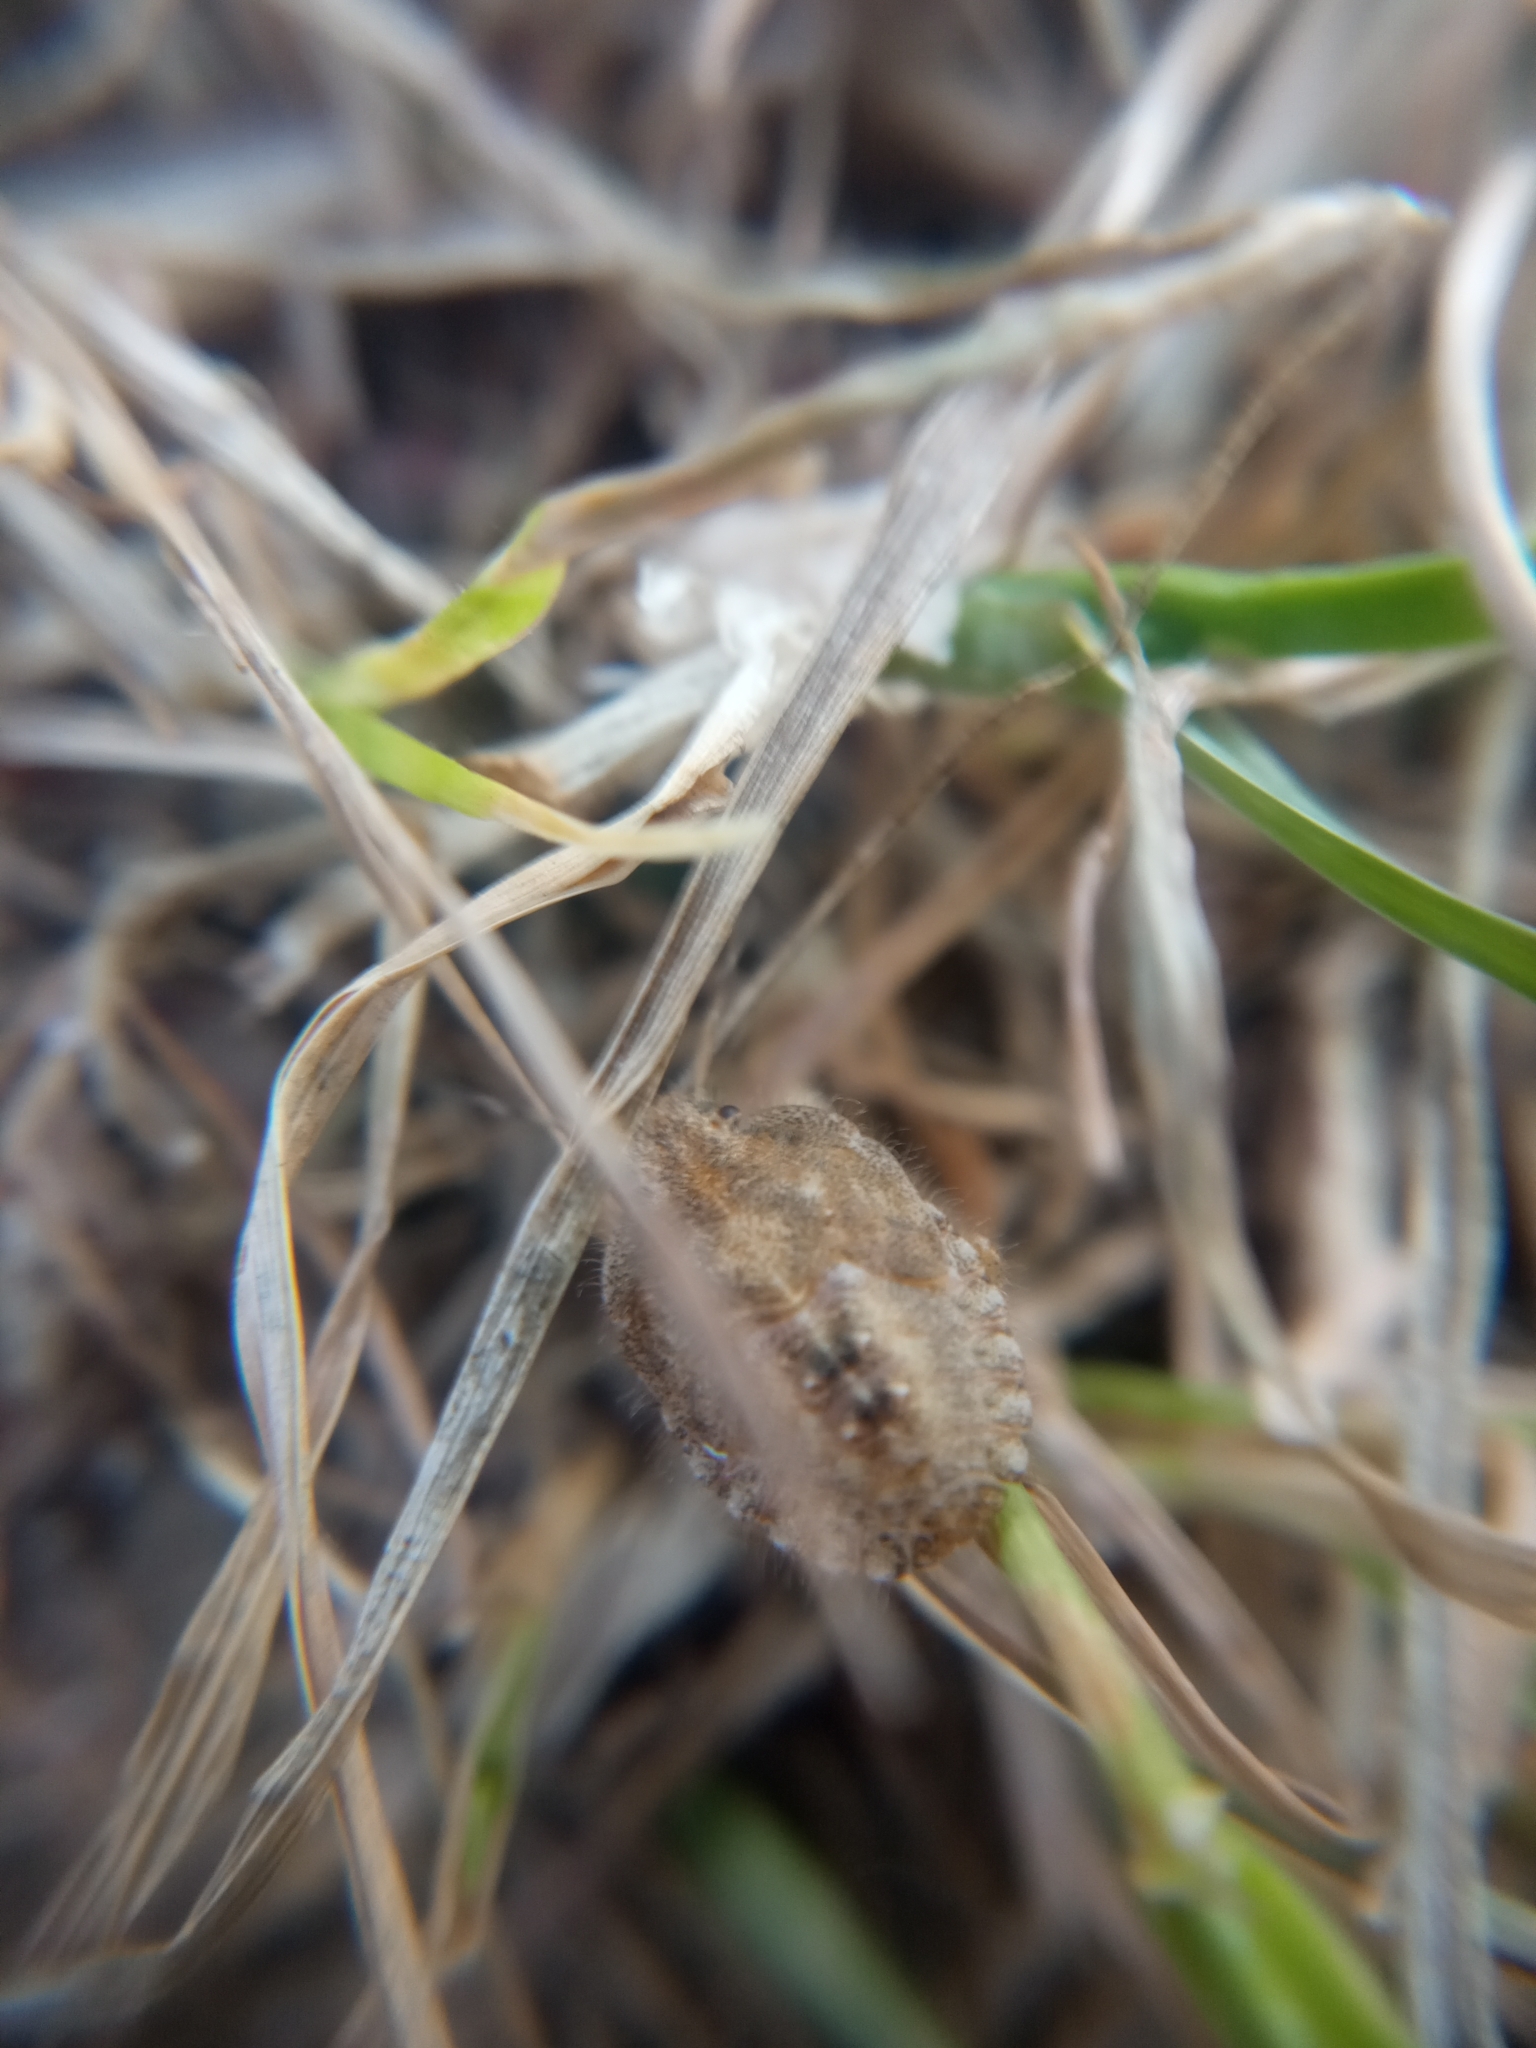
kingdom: Animalia
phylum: Arthropoda
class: Insecta
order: Hemiptera
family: Pentatomidae
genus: Dolycoris
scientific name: Dolycoris baccarum
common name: Sloe bug
